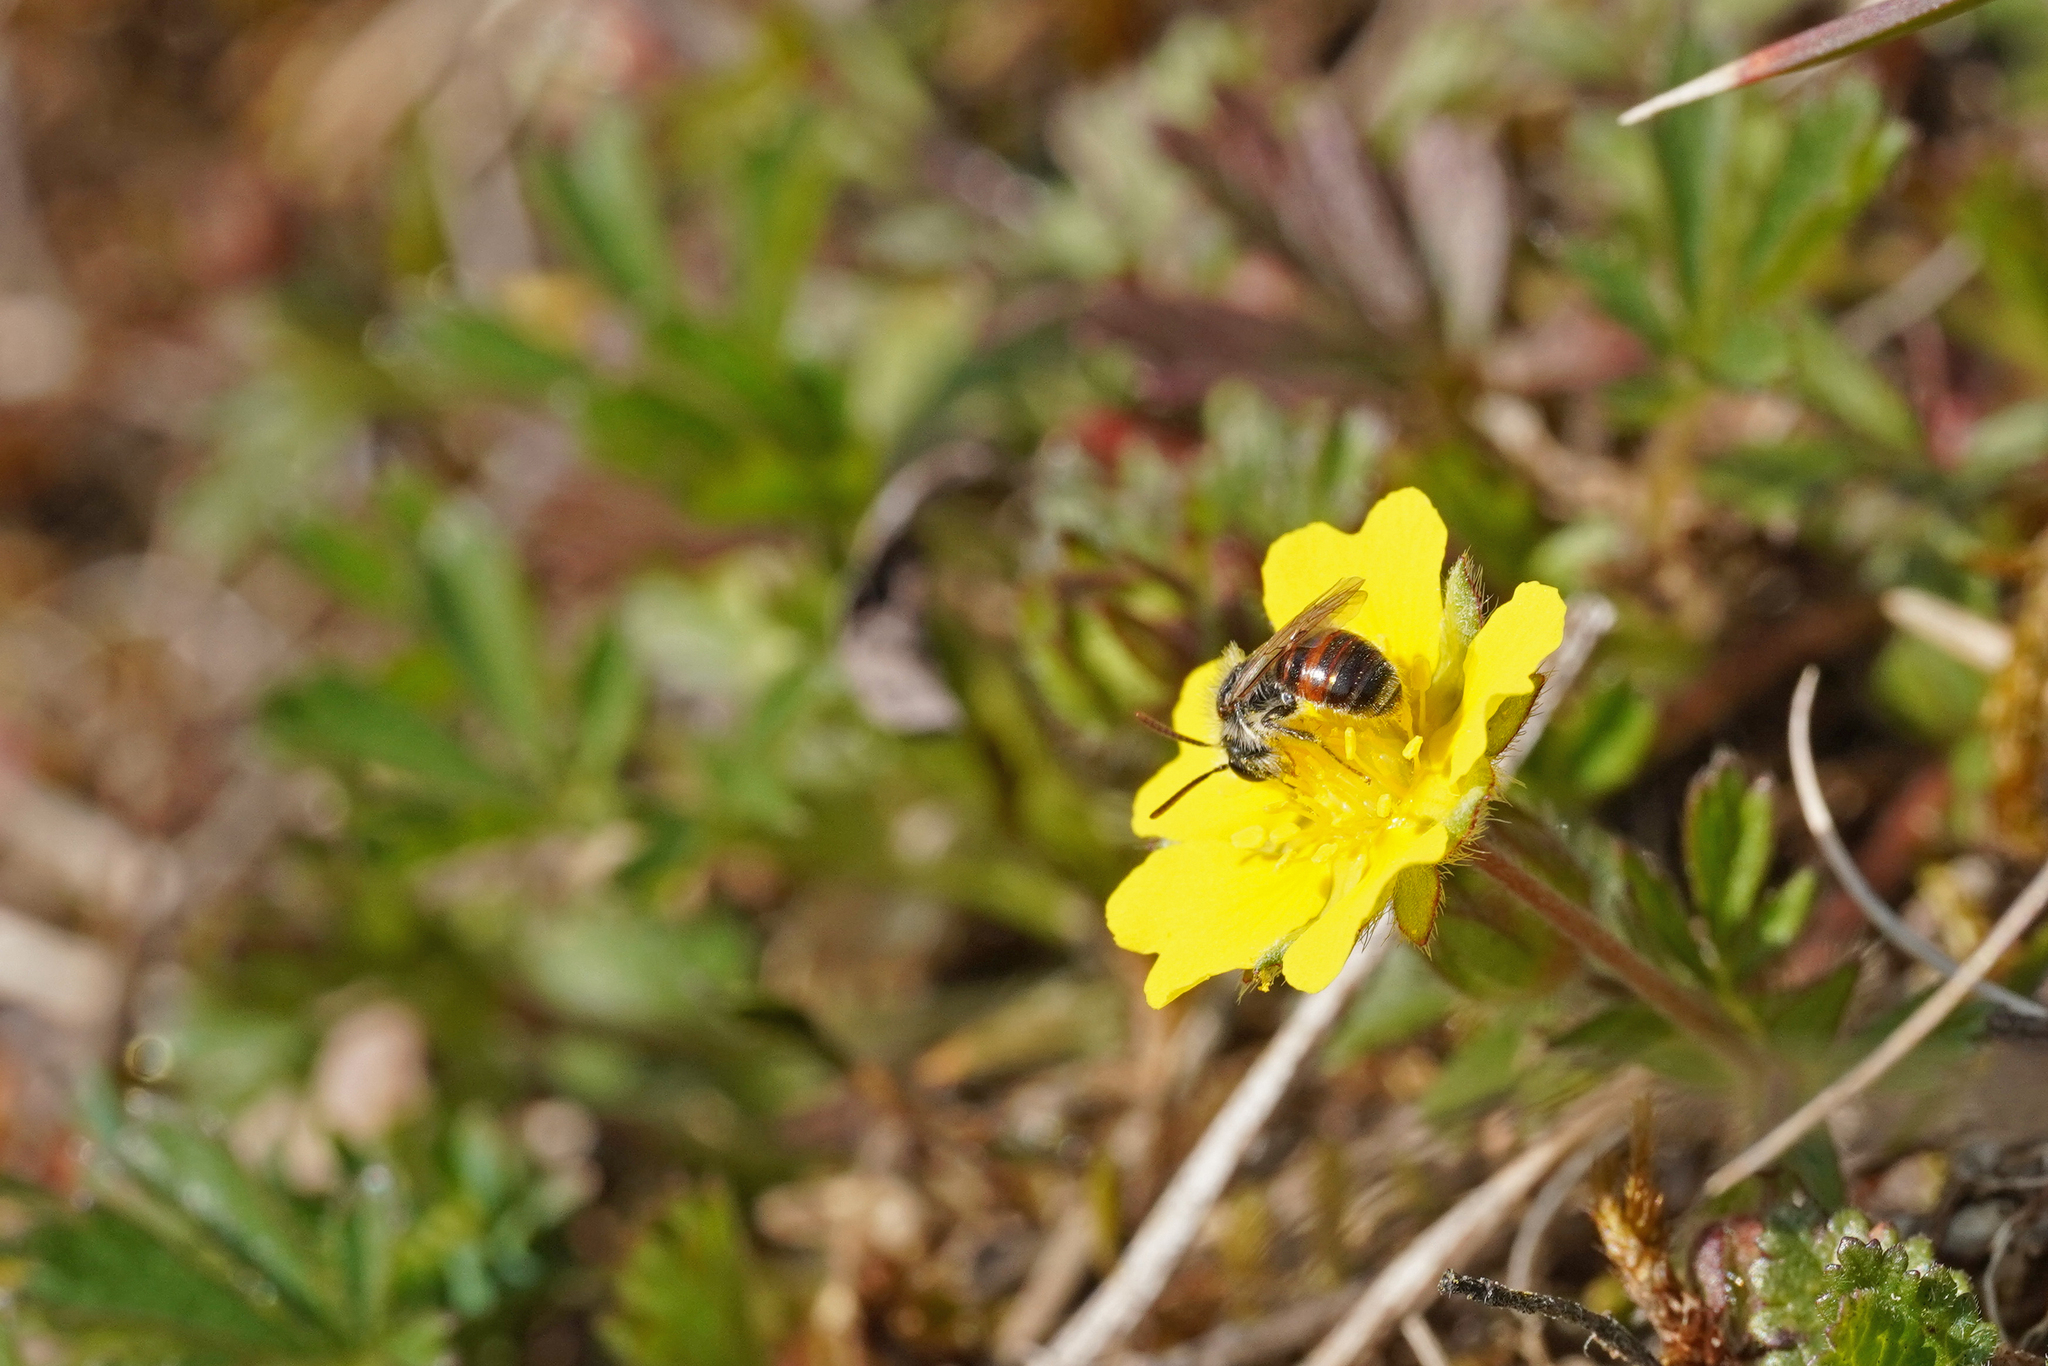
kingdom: Animalia
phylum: Arthropoda
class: Insecta
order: Hymenoptera
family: Andrenidae
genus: Andrena
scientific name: Andrena potentillae
